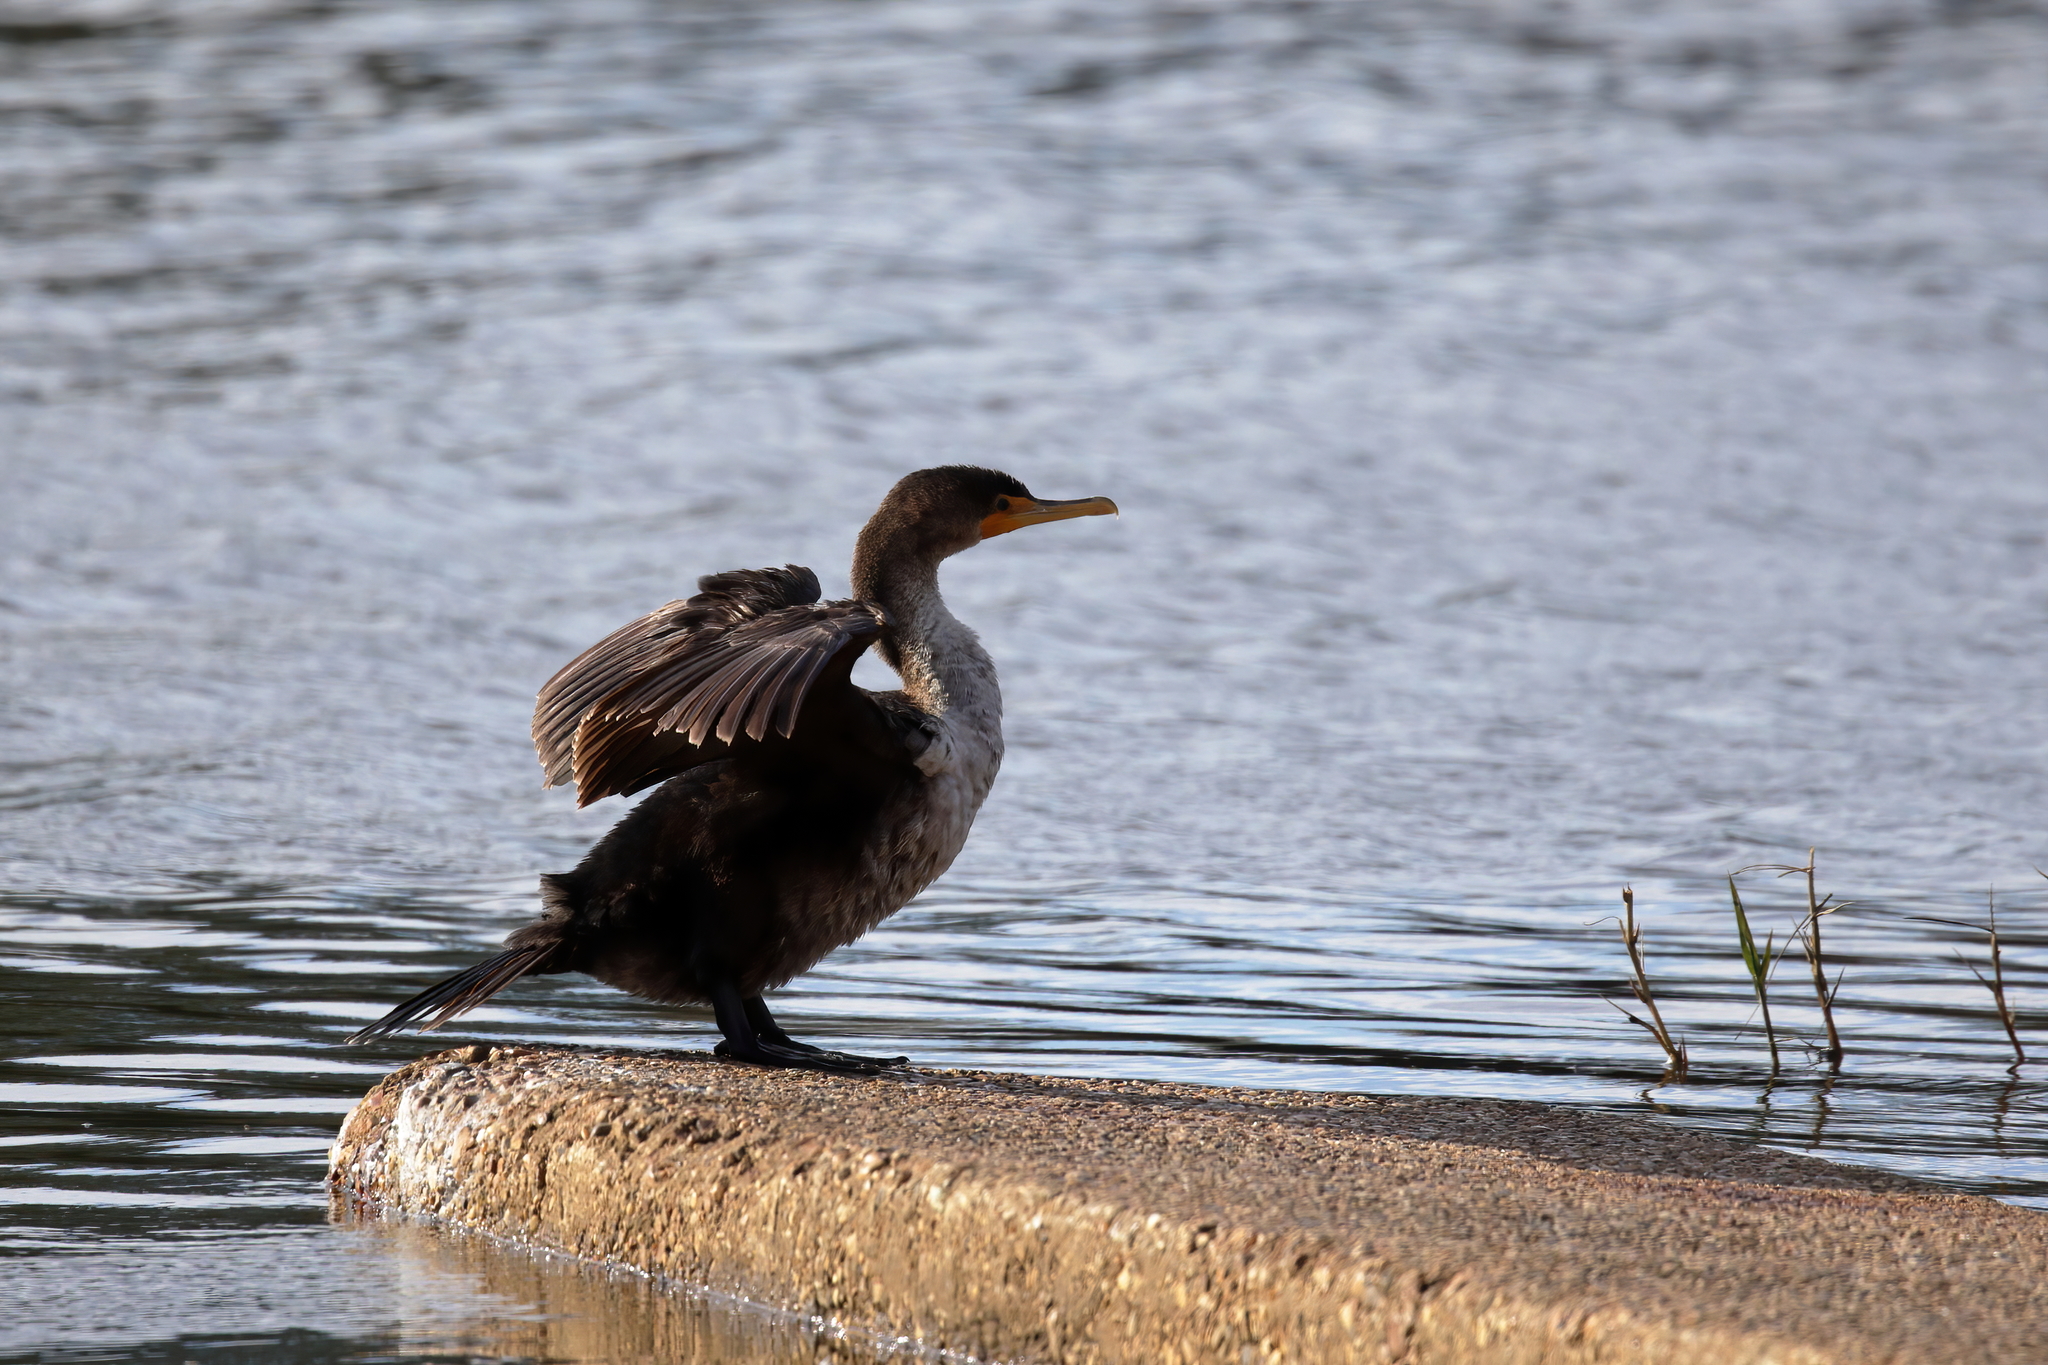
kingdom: Animalia
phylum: Chordata
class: Aves
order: Suliformes
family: Phalacrocoracidae
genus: Phalacrocorax
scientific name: Phalacrocorax auritus
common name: Double-crested cormorant
